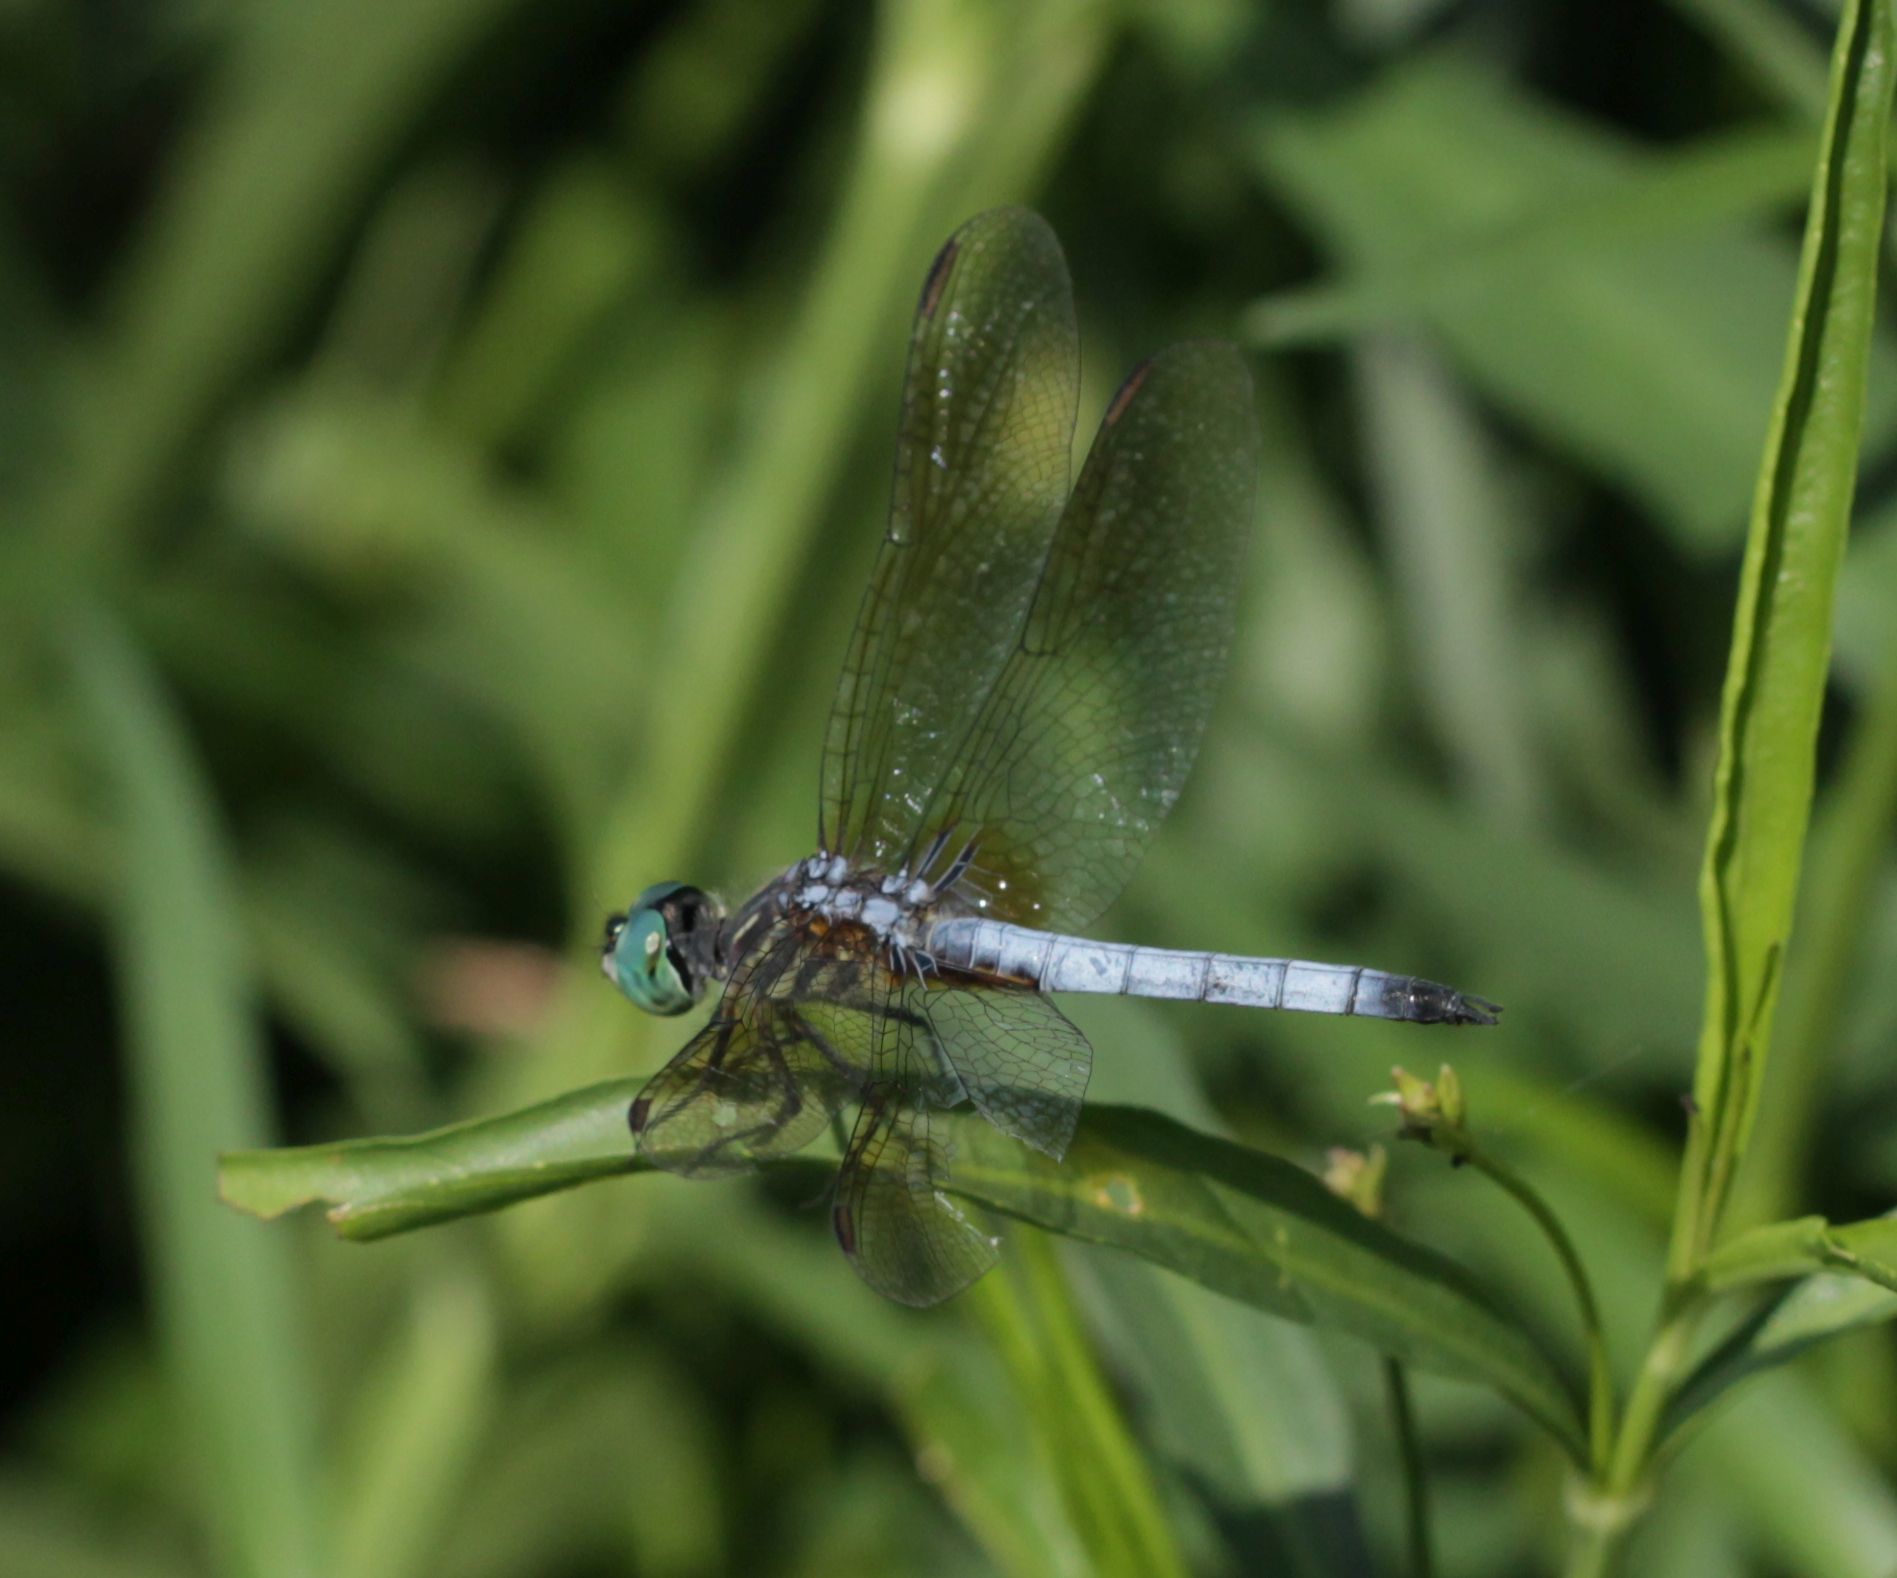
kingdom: Animalia
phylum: Arthropoda
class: Insecta
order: Odonata
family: Libellulidae
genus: Pachydiplax
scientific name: Pachydiplax longipennis
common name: Blue dasher
